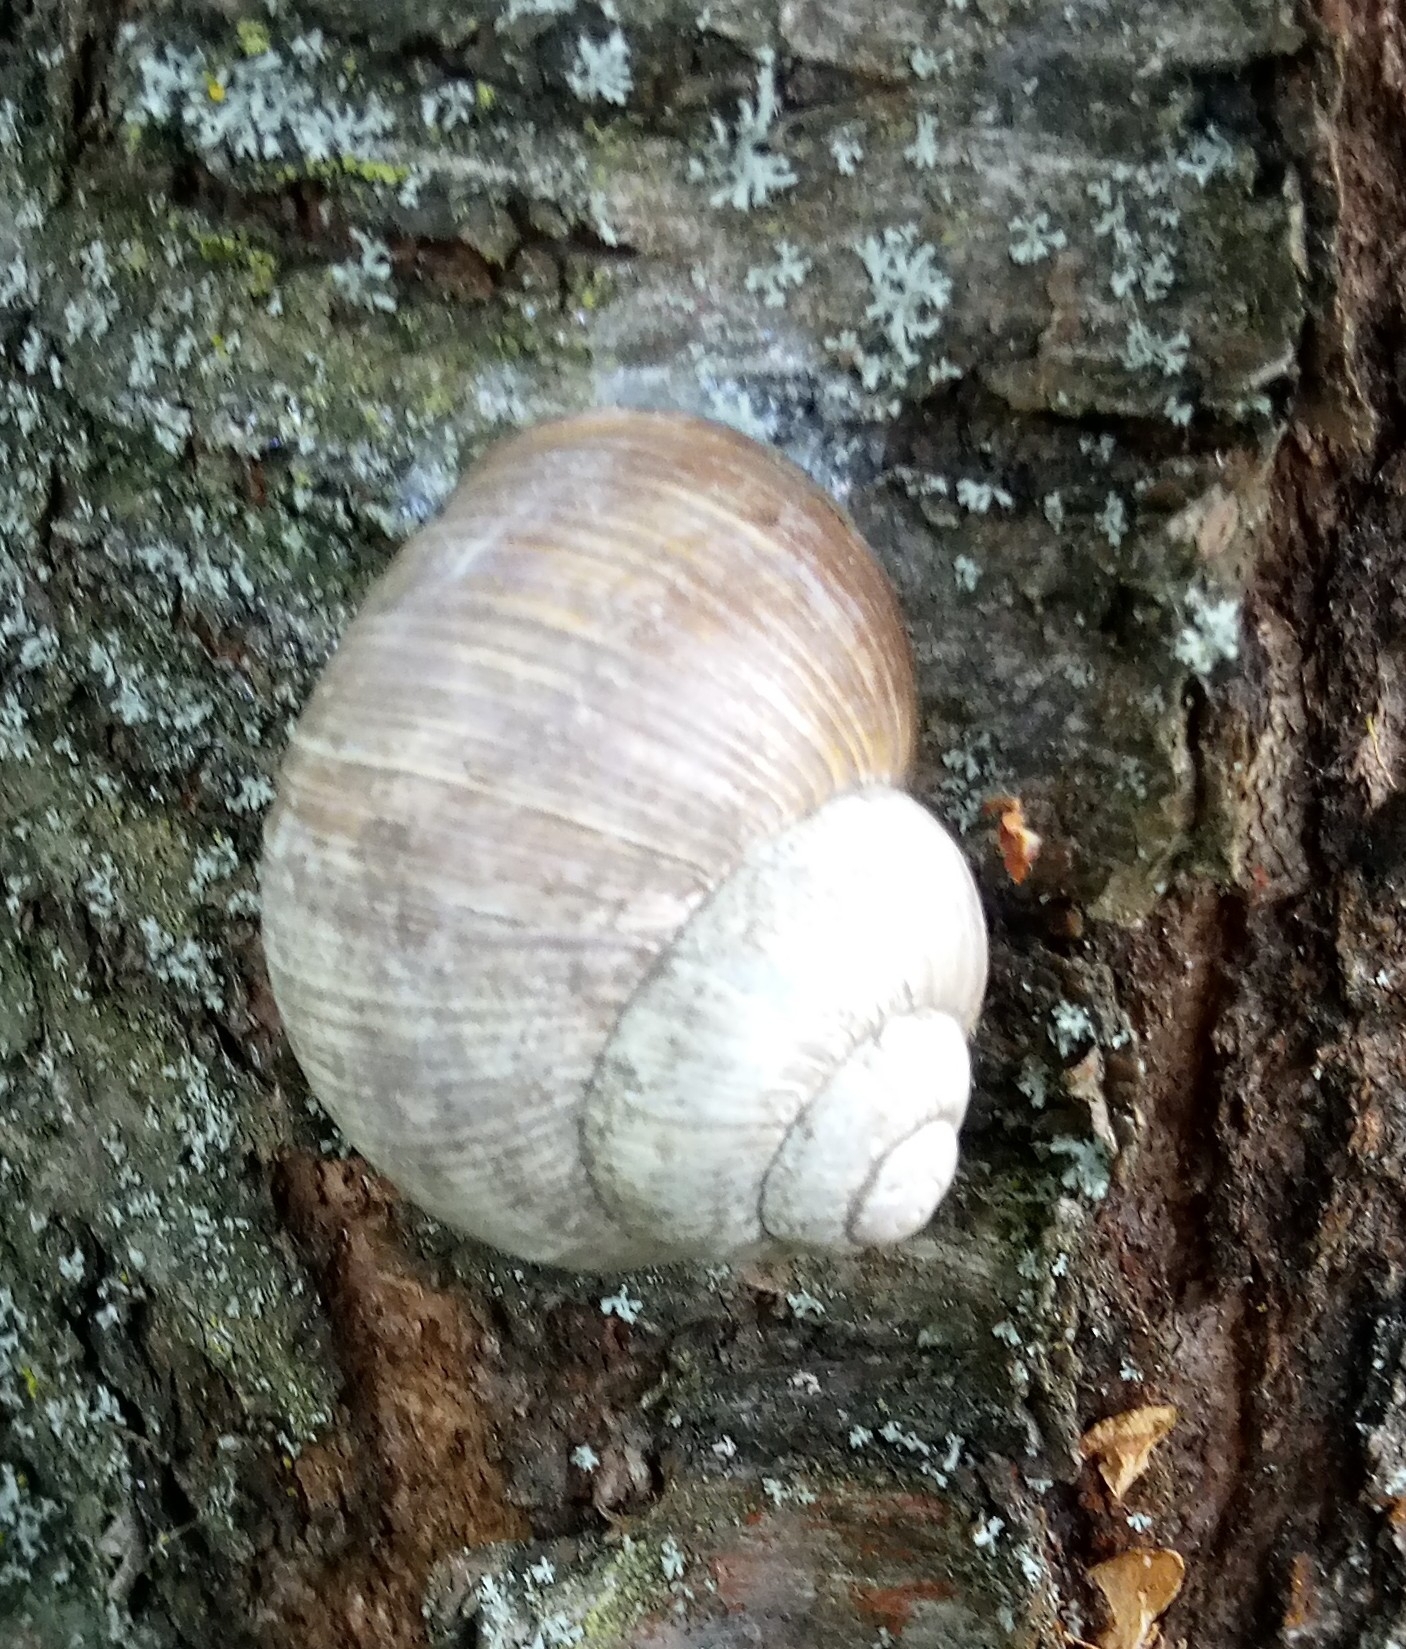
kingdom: Animalia
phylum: Mollusca
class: Gastropoda
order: Stylommatophora
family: Helicidae
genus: Helix
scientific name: Helix pomatia
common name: Roman snail
